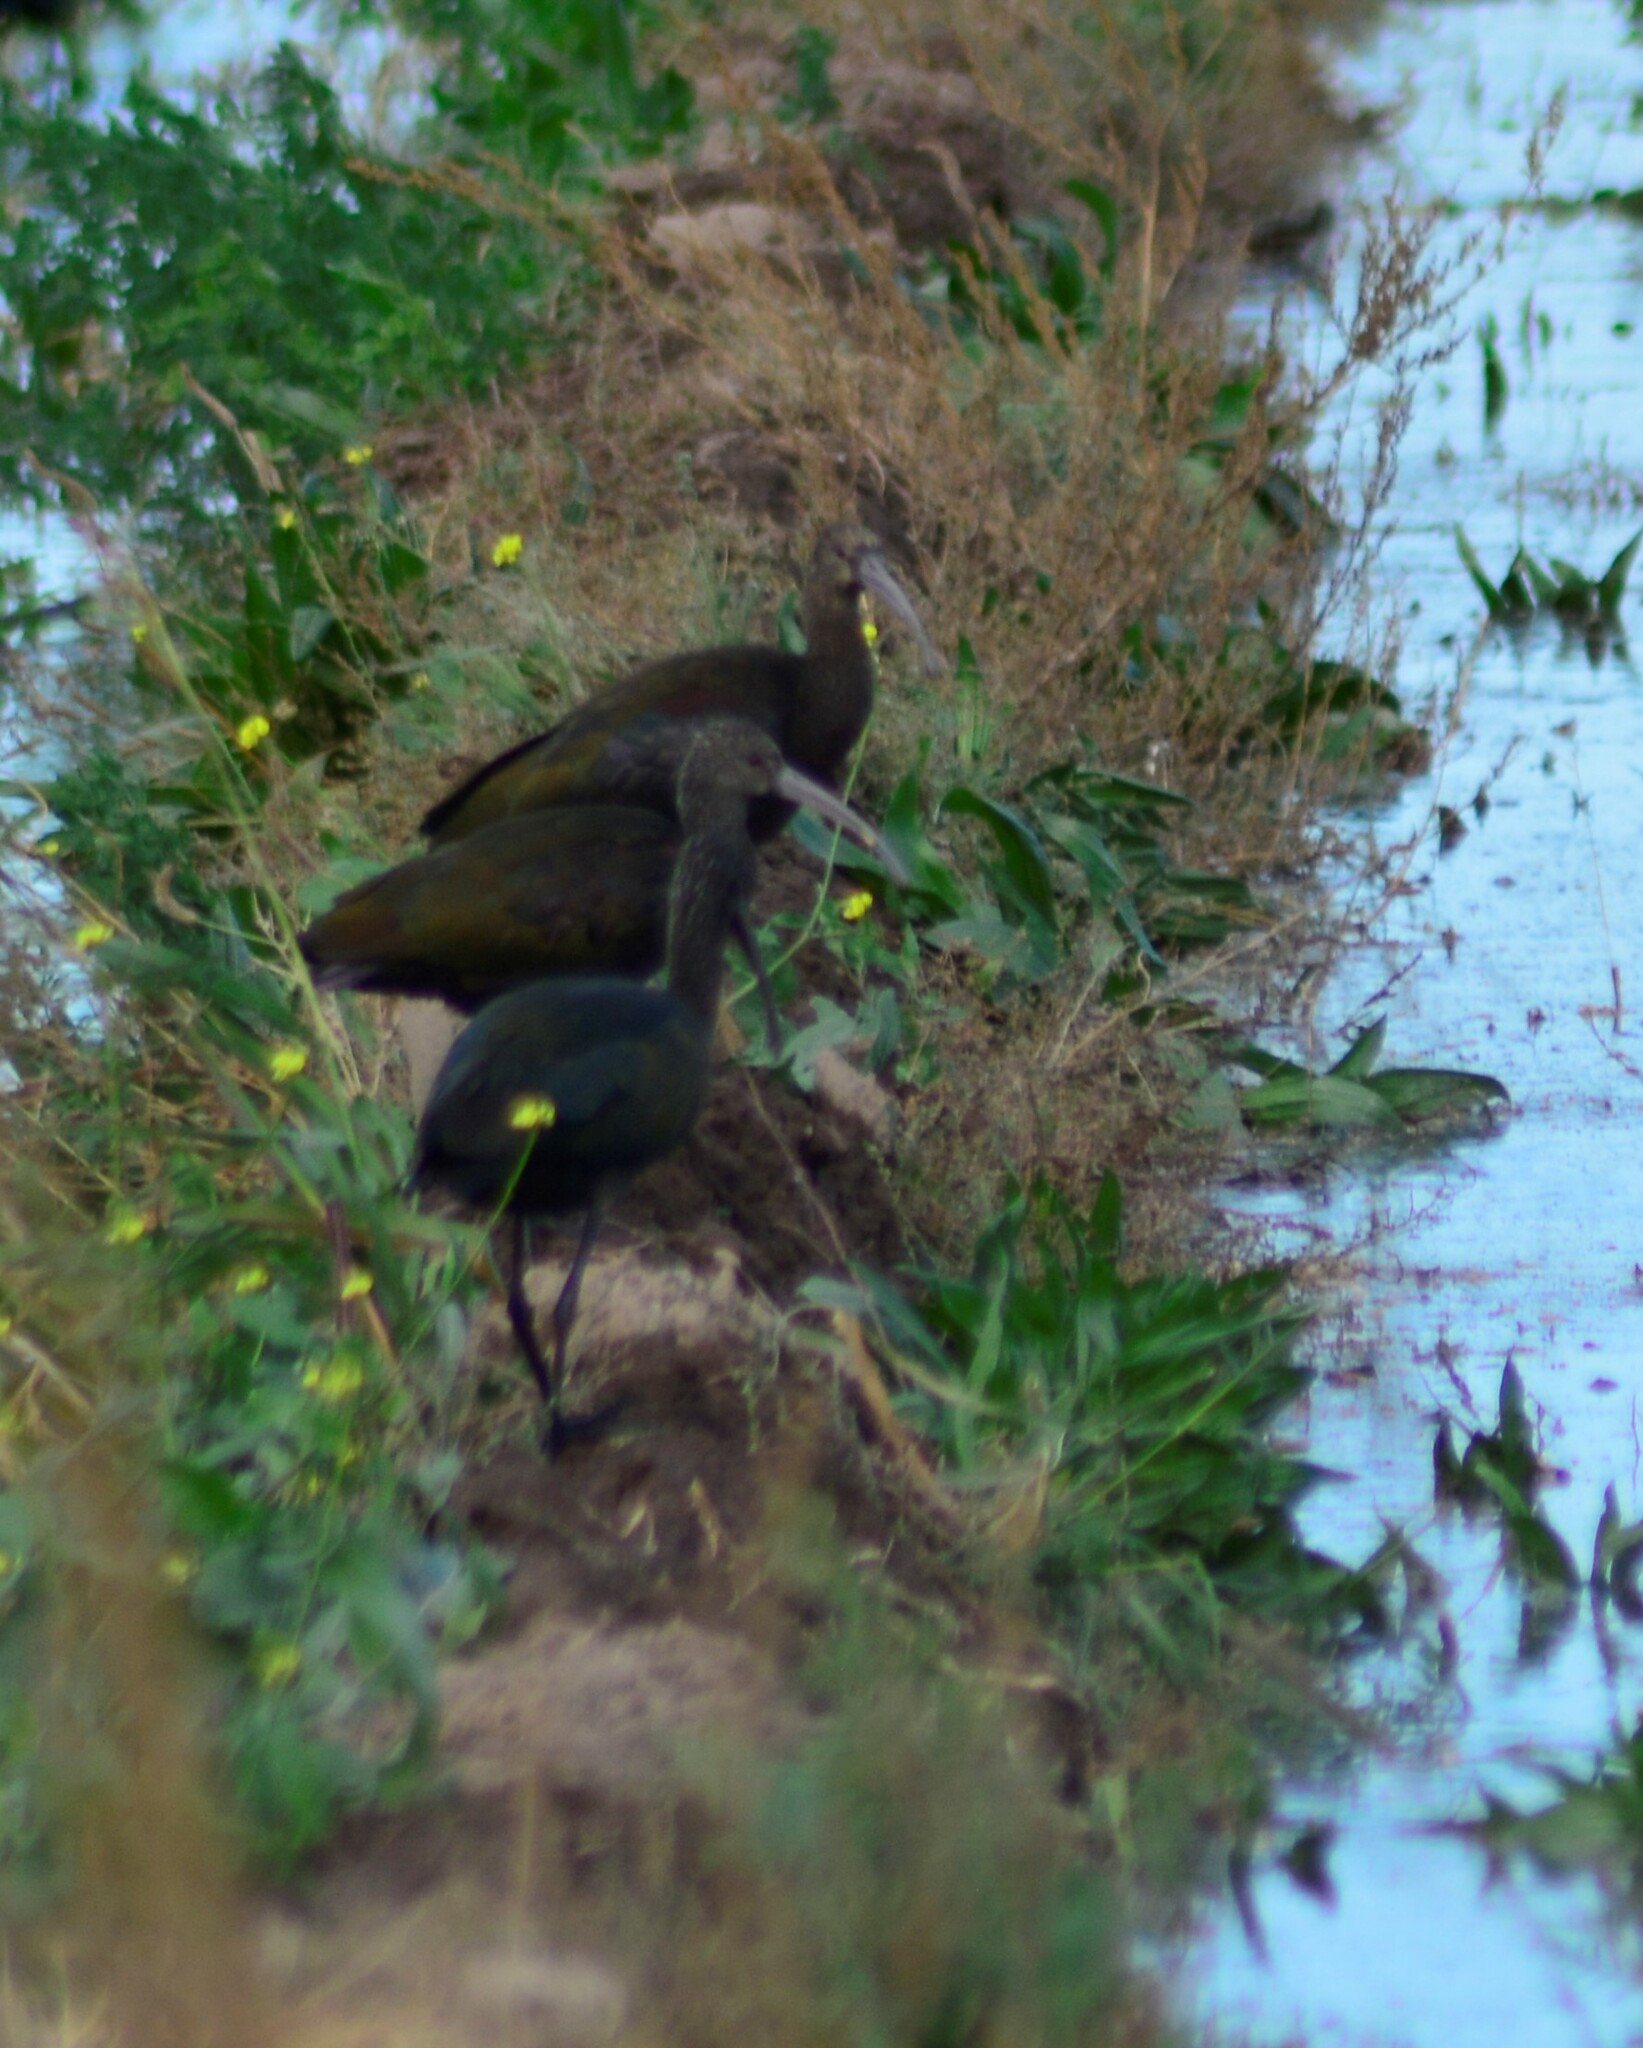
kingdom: Animalia
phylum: Chordata
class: Aves
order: Pelecaniformes
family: Threskiornithidae
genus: Plegadis
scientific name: Plegadis chihi
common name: White-faced ibis
